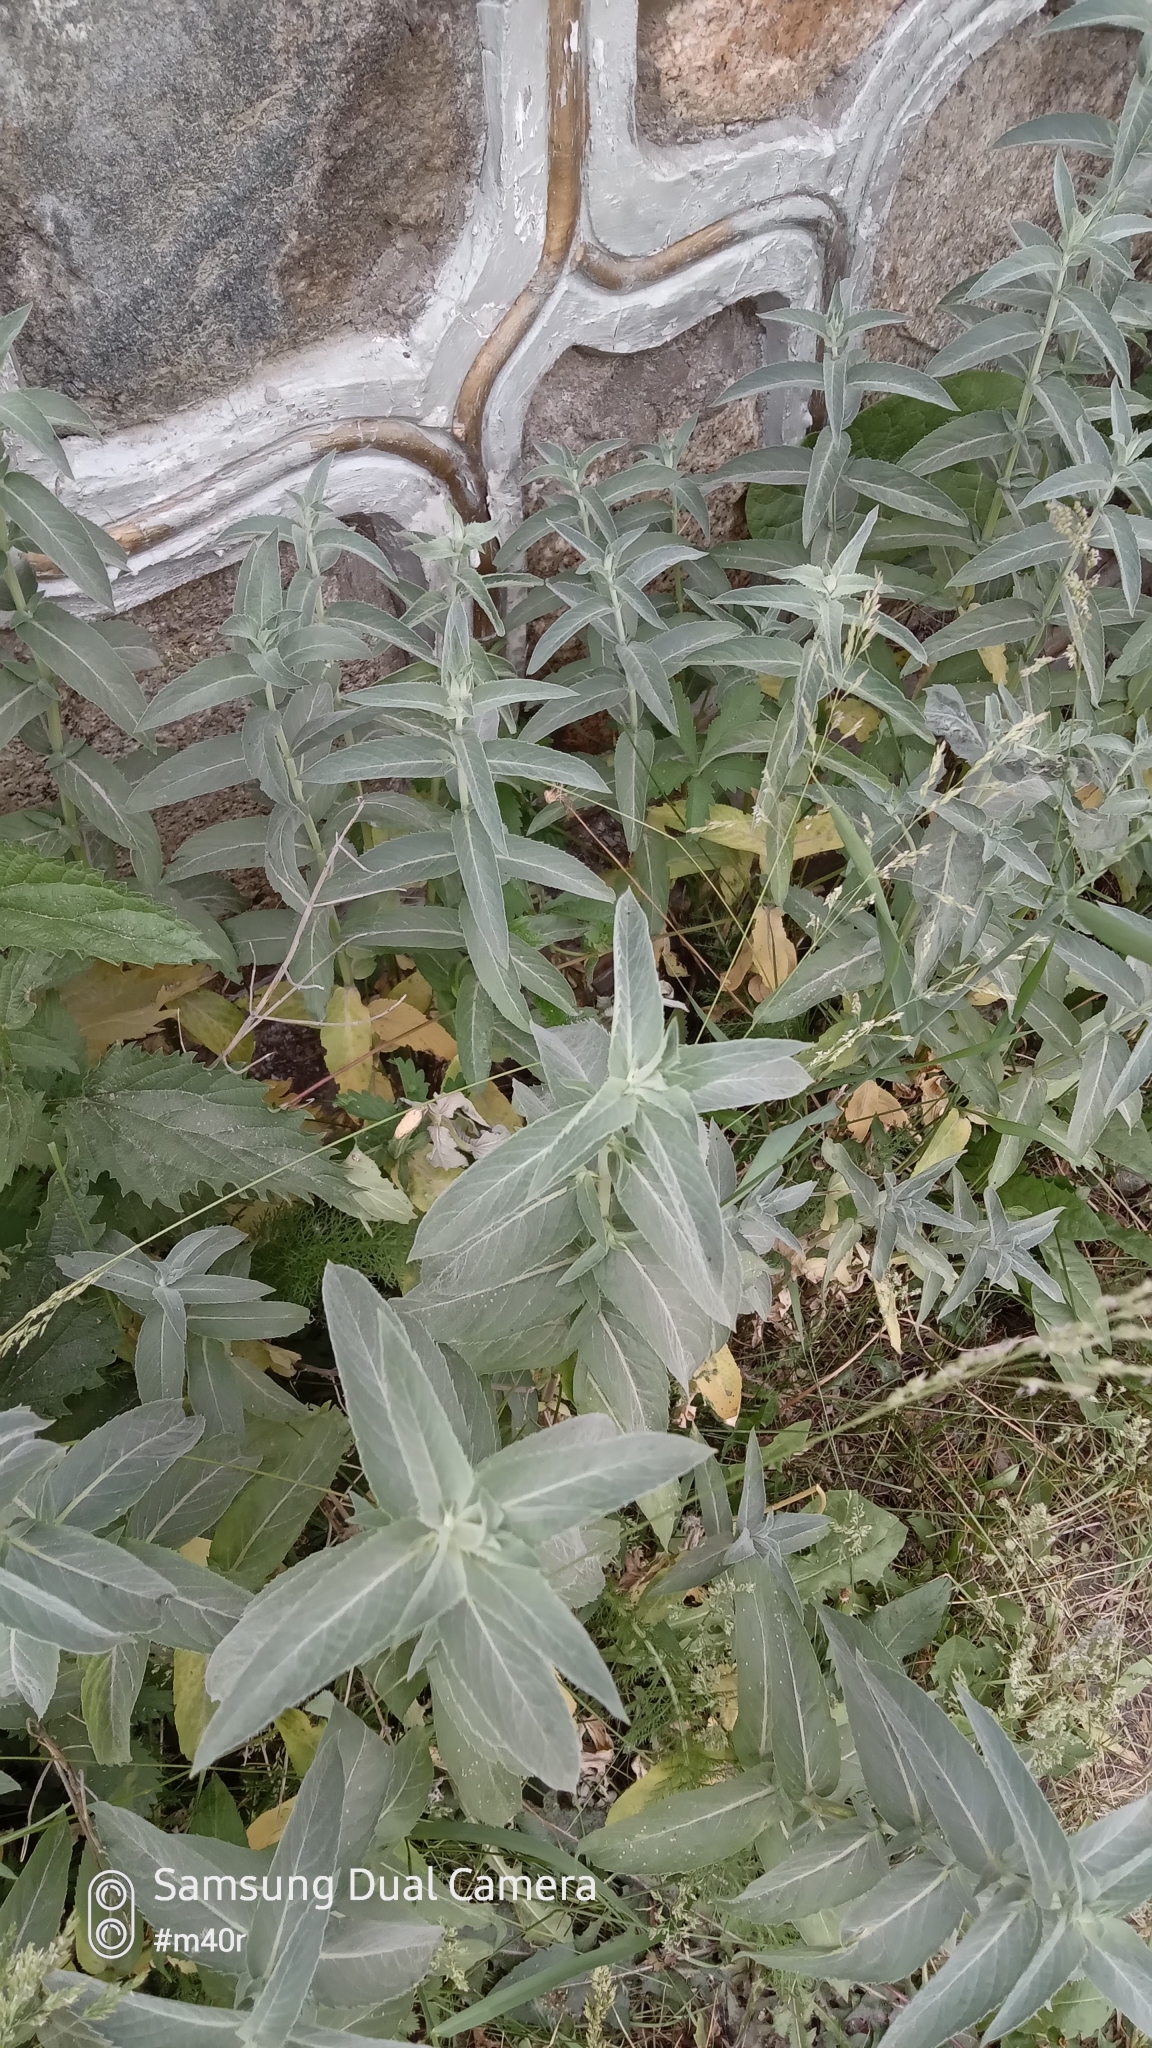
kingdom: Plantae
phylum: Tracheophyta
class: Magnoliopsida
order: Lamiales
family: Lamiaceae
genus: Mentha
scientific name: Mentha longifolia
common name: Horse mint
